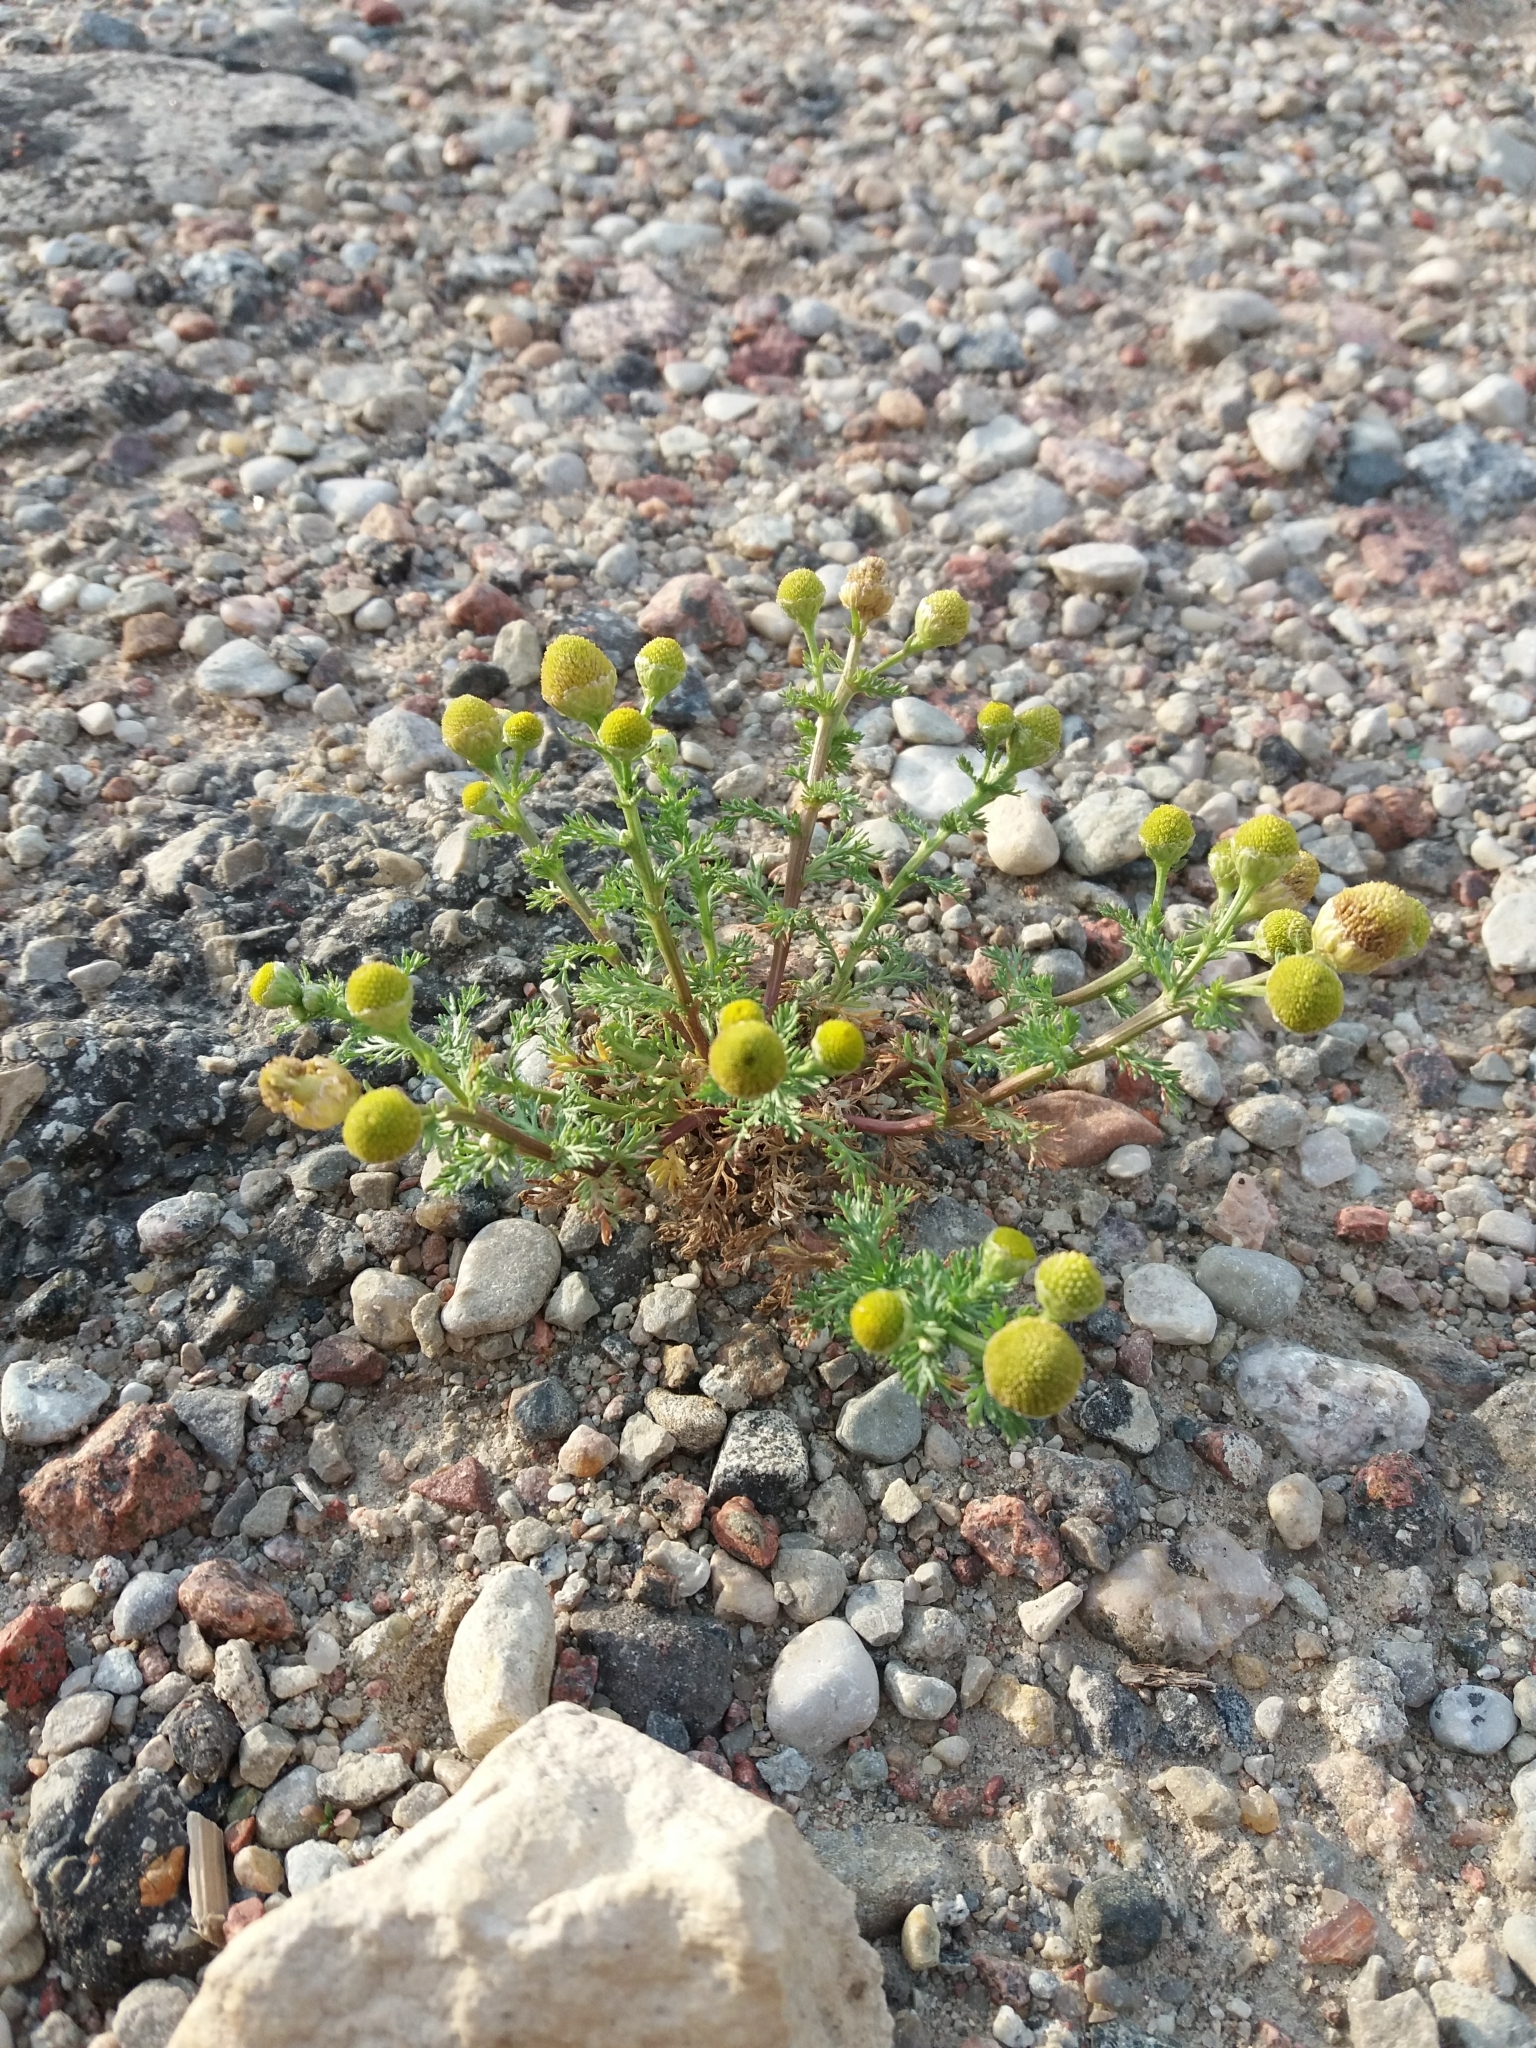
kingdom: Plantae
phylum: Tracheophyta
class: Magnoliopsida
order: Asterales
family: Asteraceae
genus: Matricaria
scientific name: Matricaria discoidea
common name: Disc mayweed
